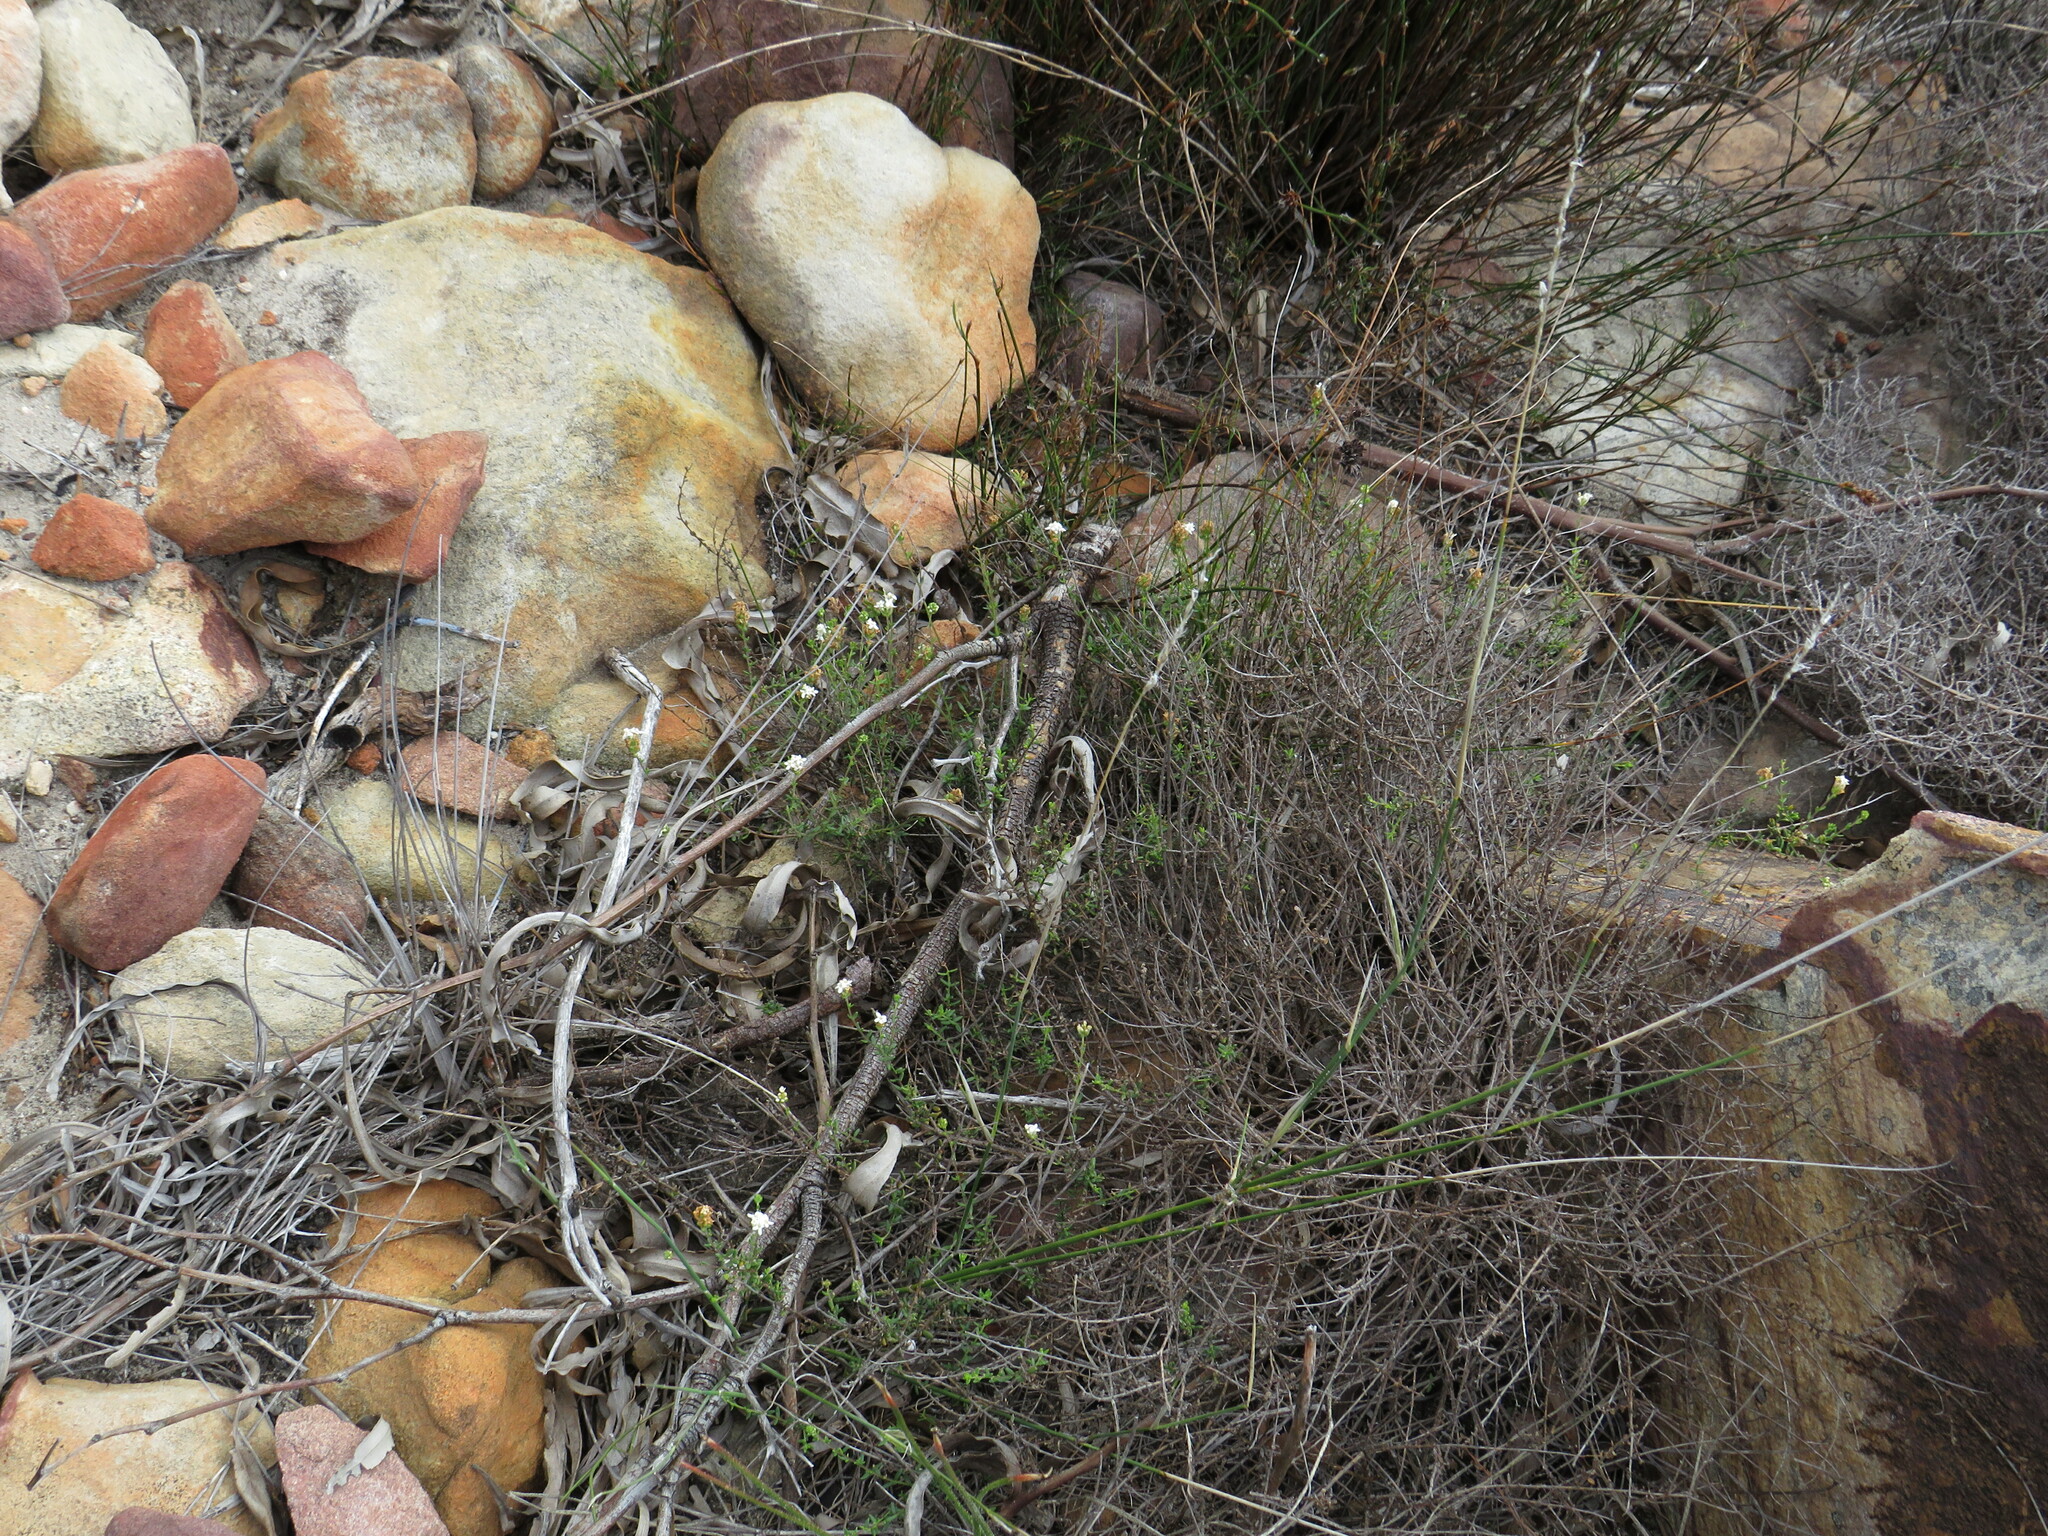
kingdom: Plantae
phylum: Tracheophyta
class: Magnoliopsida
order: Lamiales
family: Scrophulariaceae
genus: Selago
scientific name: Selago levynsiae
